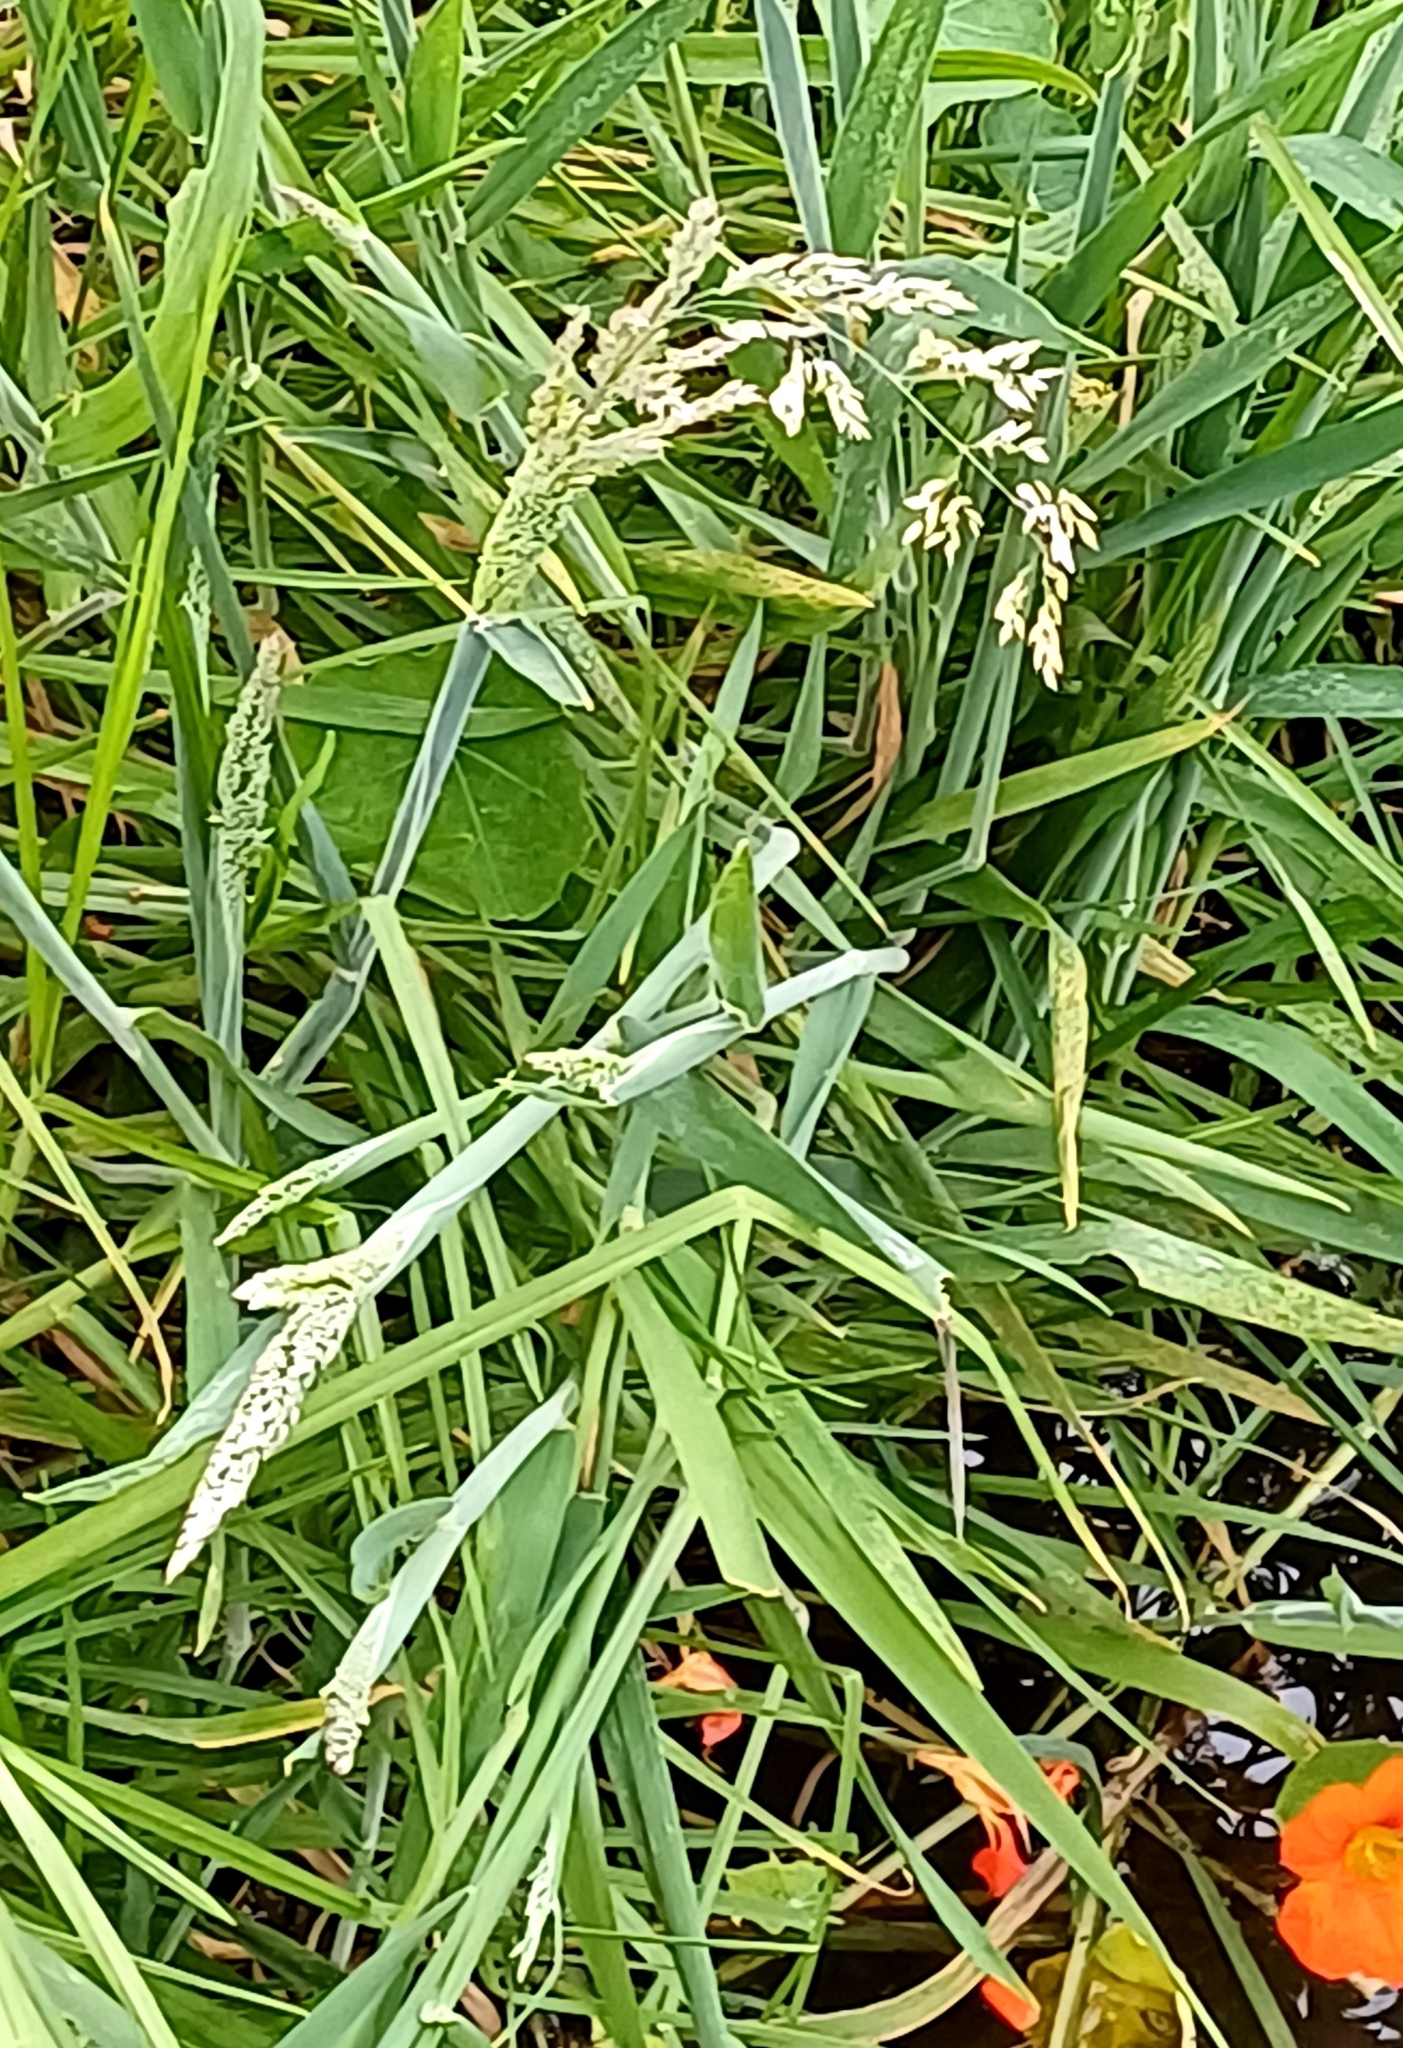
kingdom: Plantae
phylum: Tracheophyta
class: Liliopsida
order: Poales
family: Poaceae
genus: Holcus
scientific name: Holcus lanatus
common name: Yorkshire-fog
